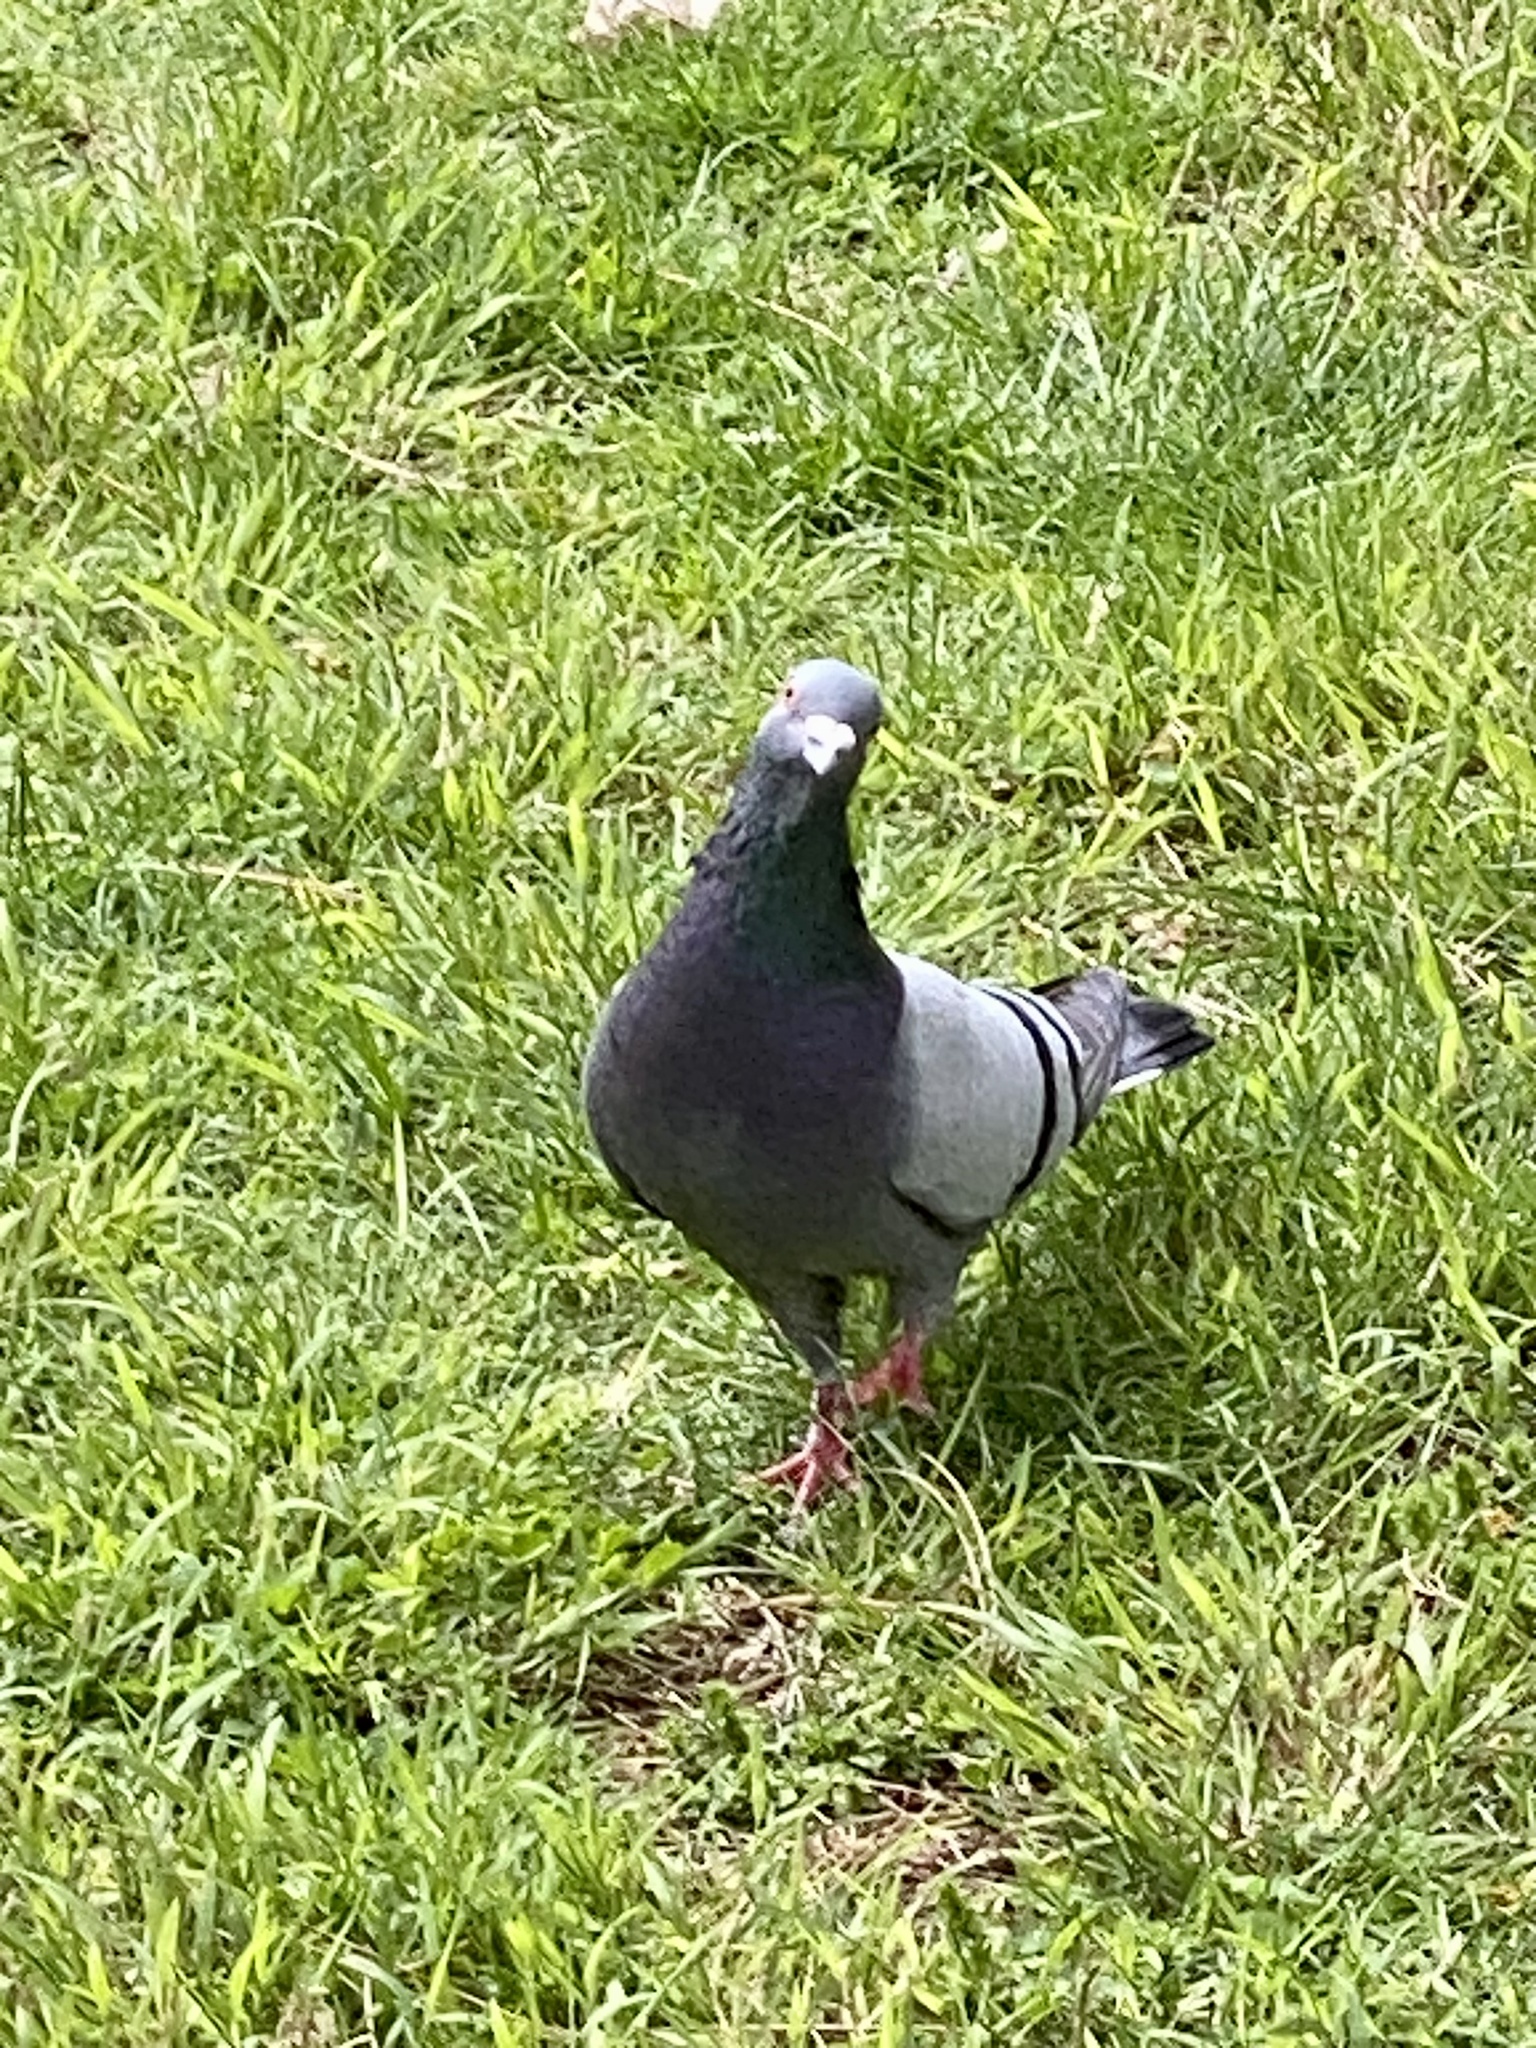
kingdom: Animalia
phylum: Chordata
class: Aves
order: Columbiformes
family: Columbidae
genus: Columba
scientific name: Columba livia
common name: Rock pigeon
